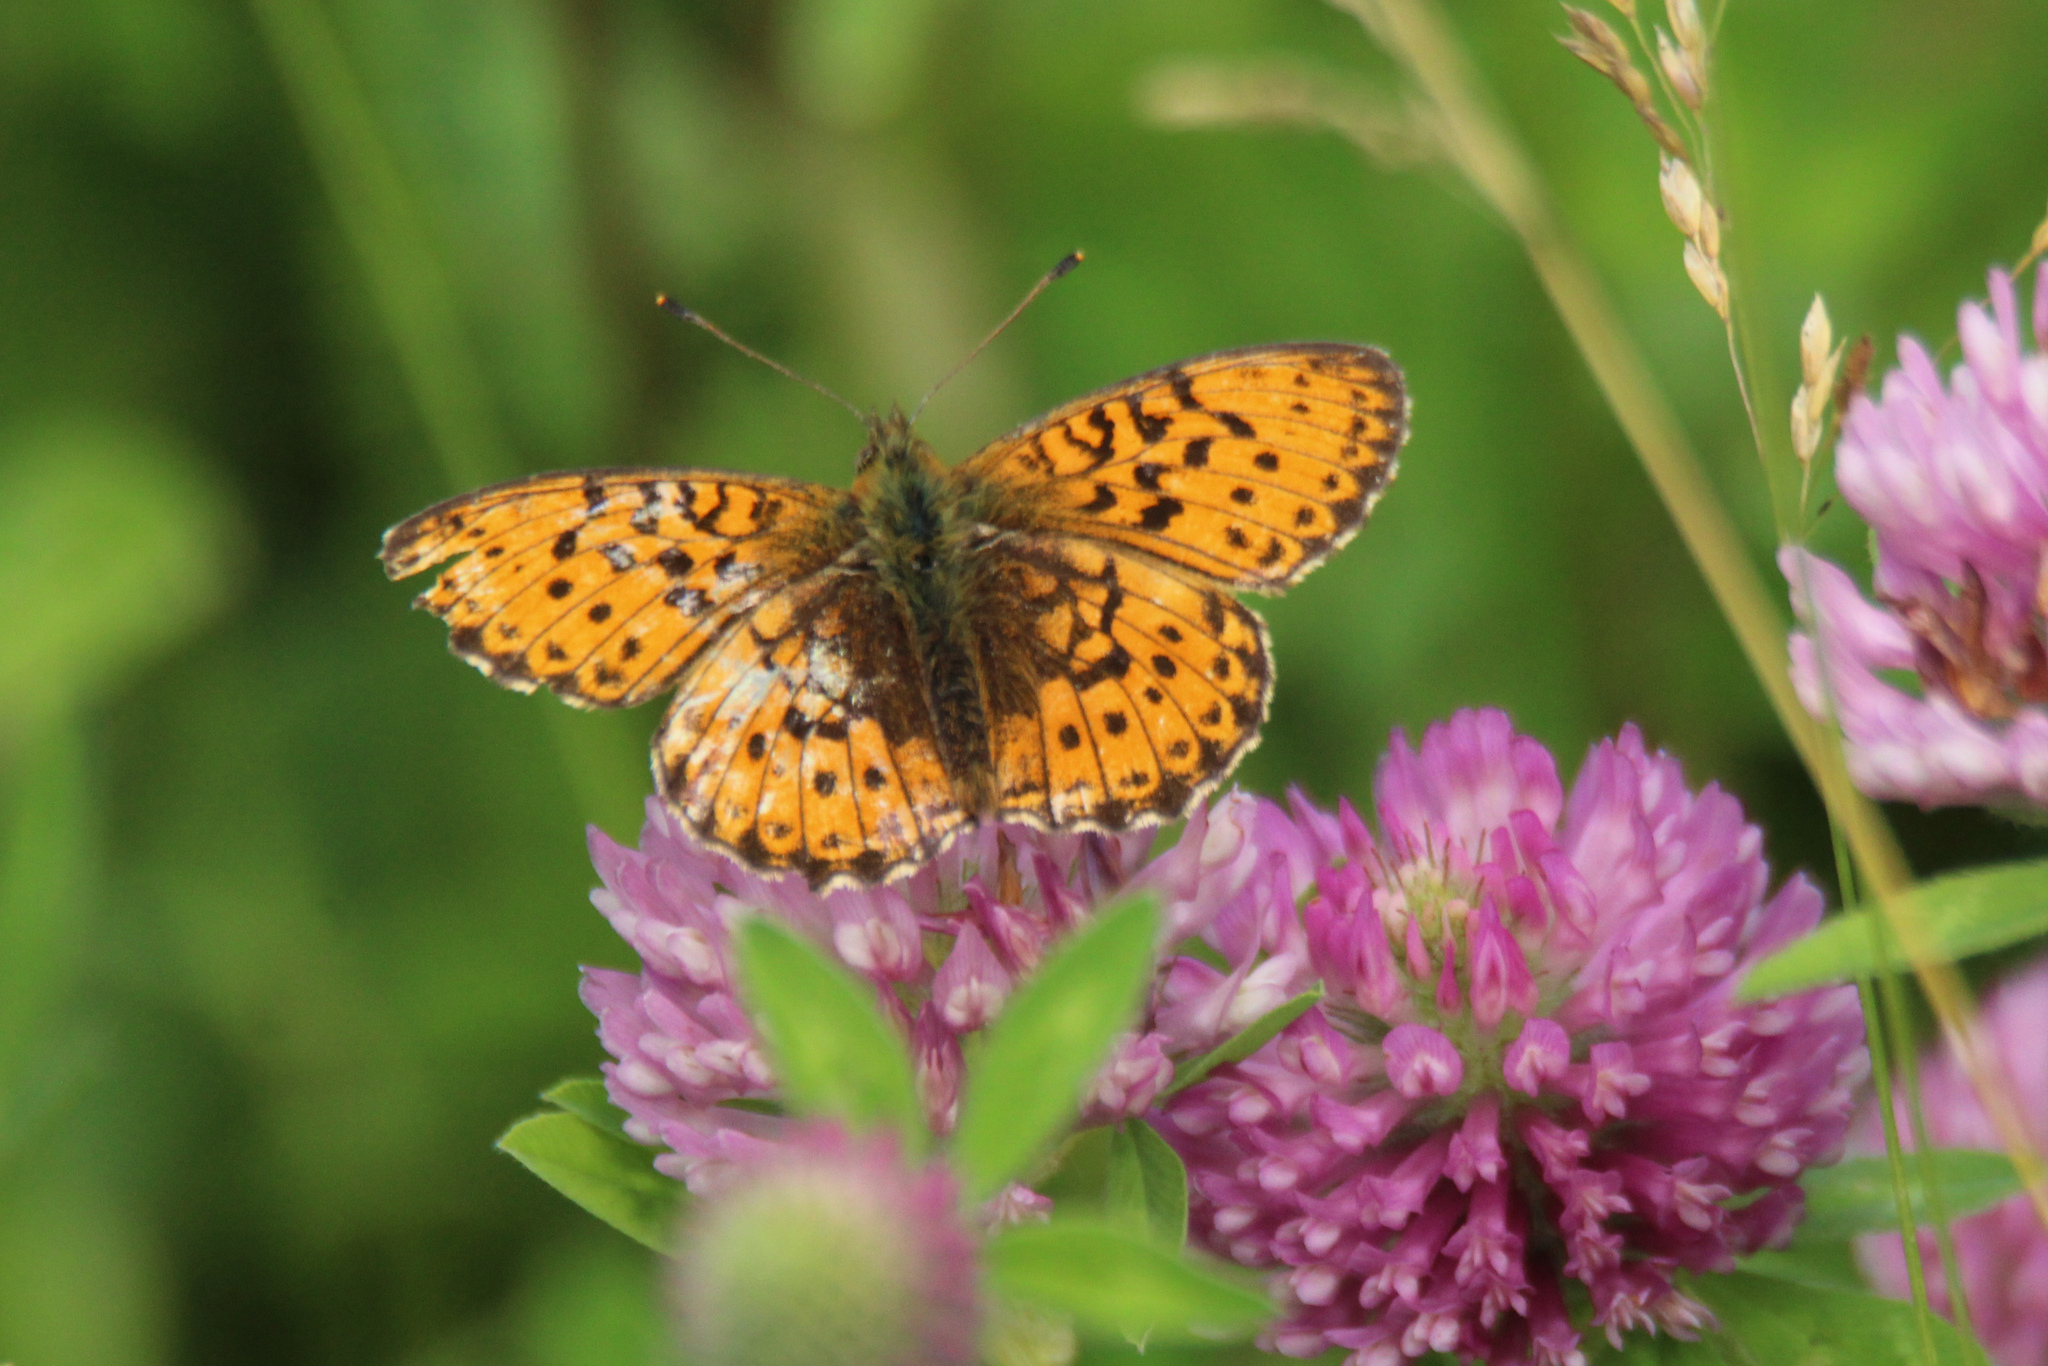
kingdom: Animalia
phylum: Arthropoda
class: Insecta
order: Lepidoptera
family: Nymphalidae
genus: Brenthis
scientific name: Brenthis ino
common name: Lesser marbled fritillary
